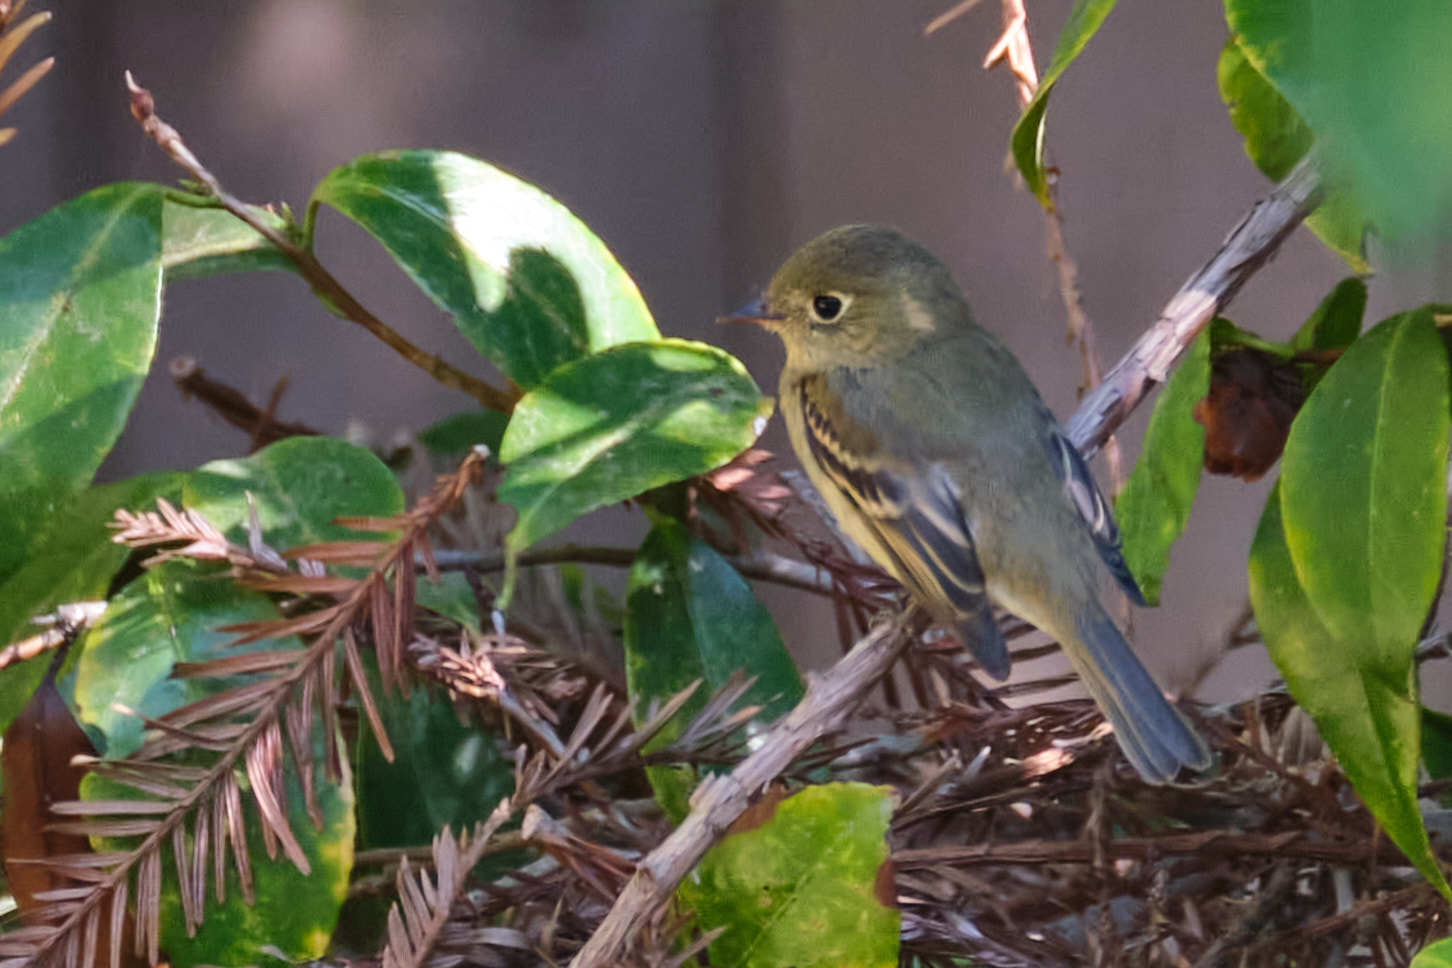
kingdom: Animalia
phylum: Chordata
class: Aves
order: Passeriformes
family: Tyrannidae
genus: Empidonax
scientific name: Empidonax difficilis
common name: Pacific-slope flycatcher
